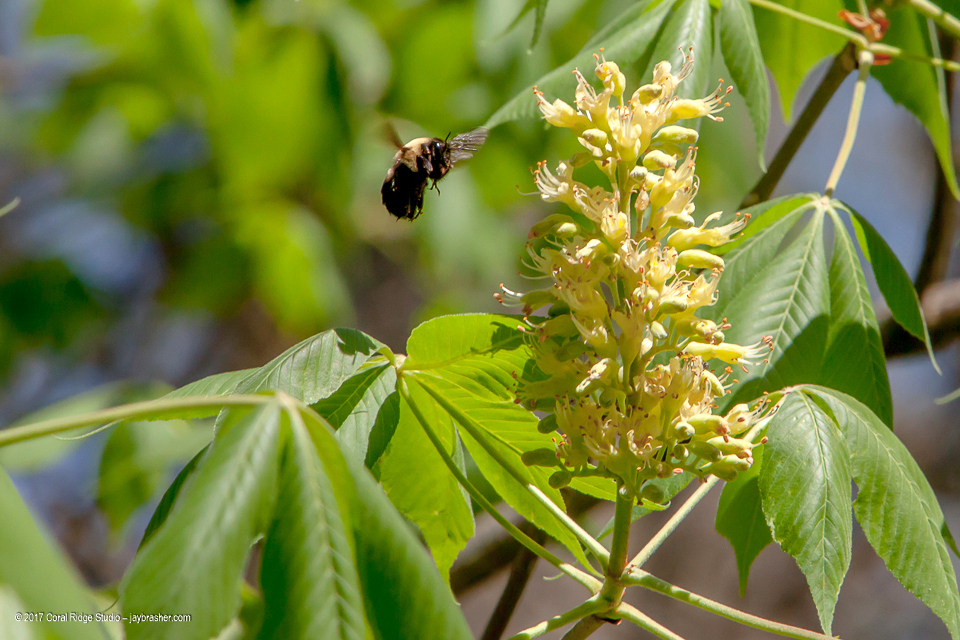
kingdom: Animalia
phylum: Arthropoda
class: Insecta
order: Hymenoptera
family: Apidae
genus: Bombus
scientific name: Bombus griseocollis
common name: Brown-belted bumble bee
